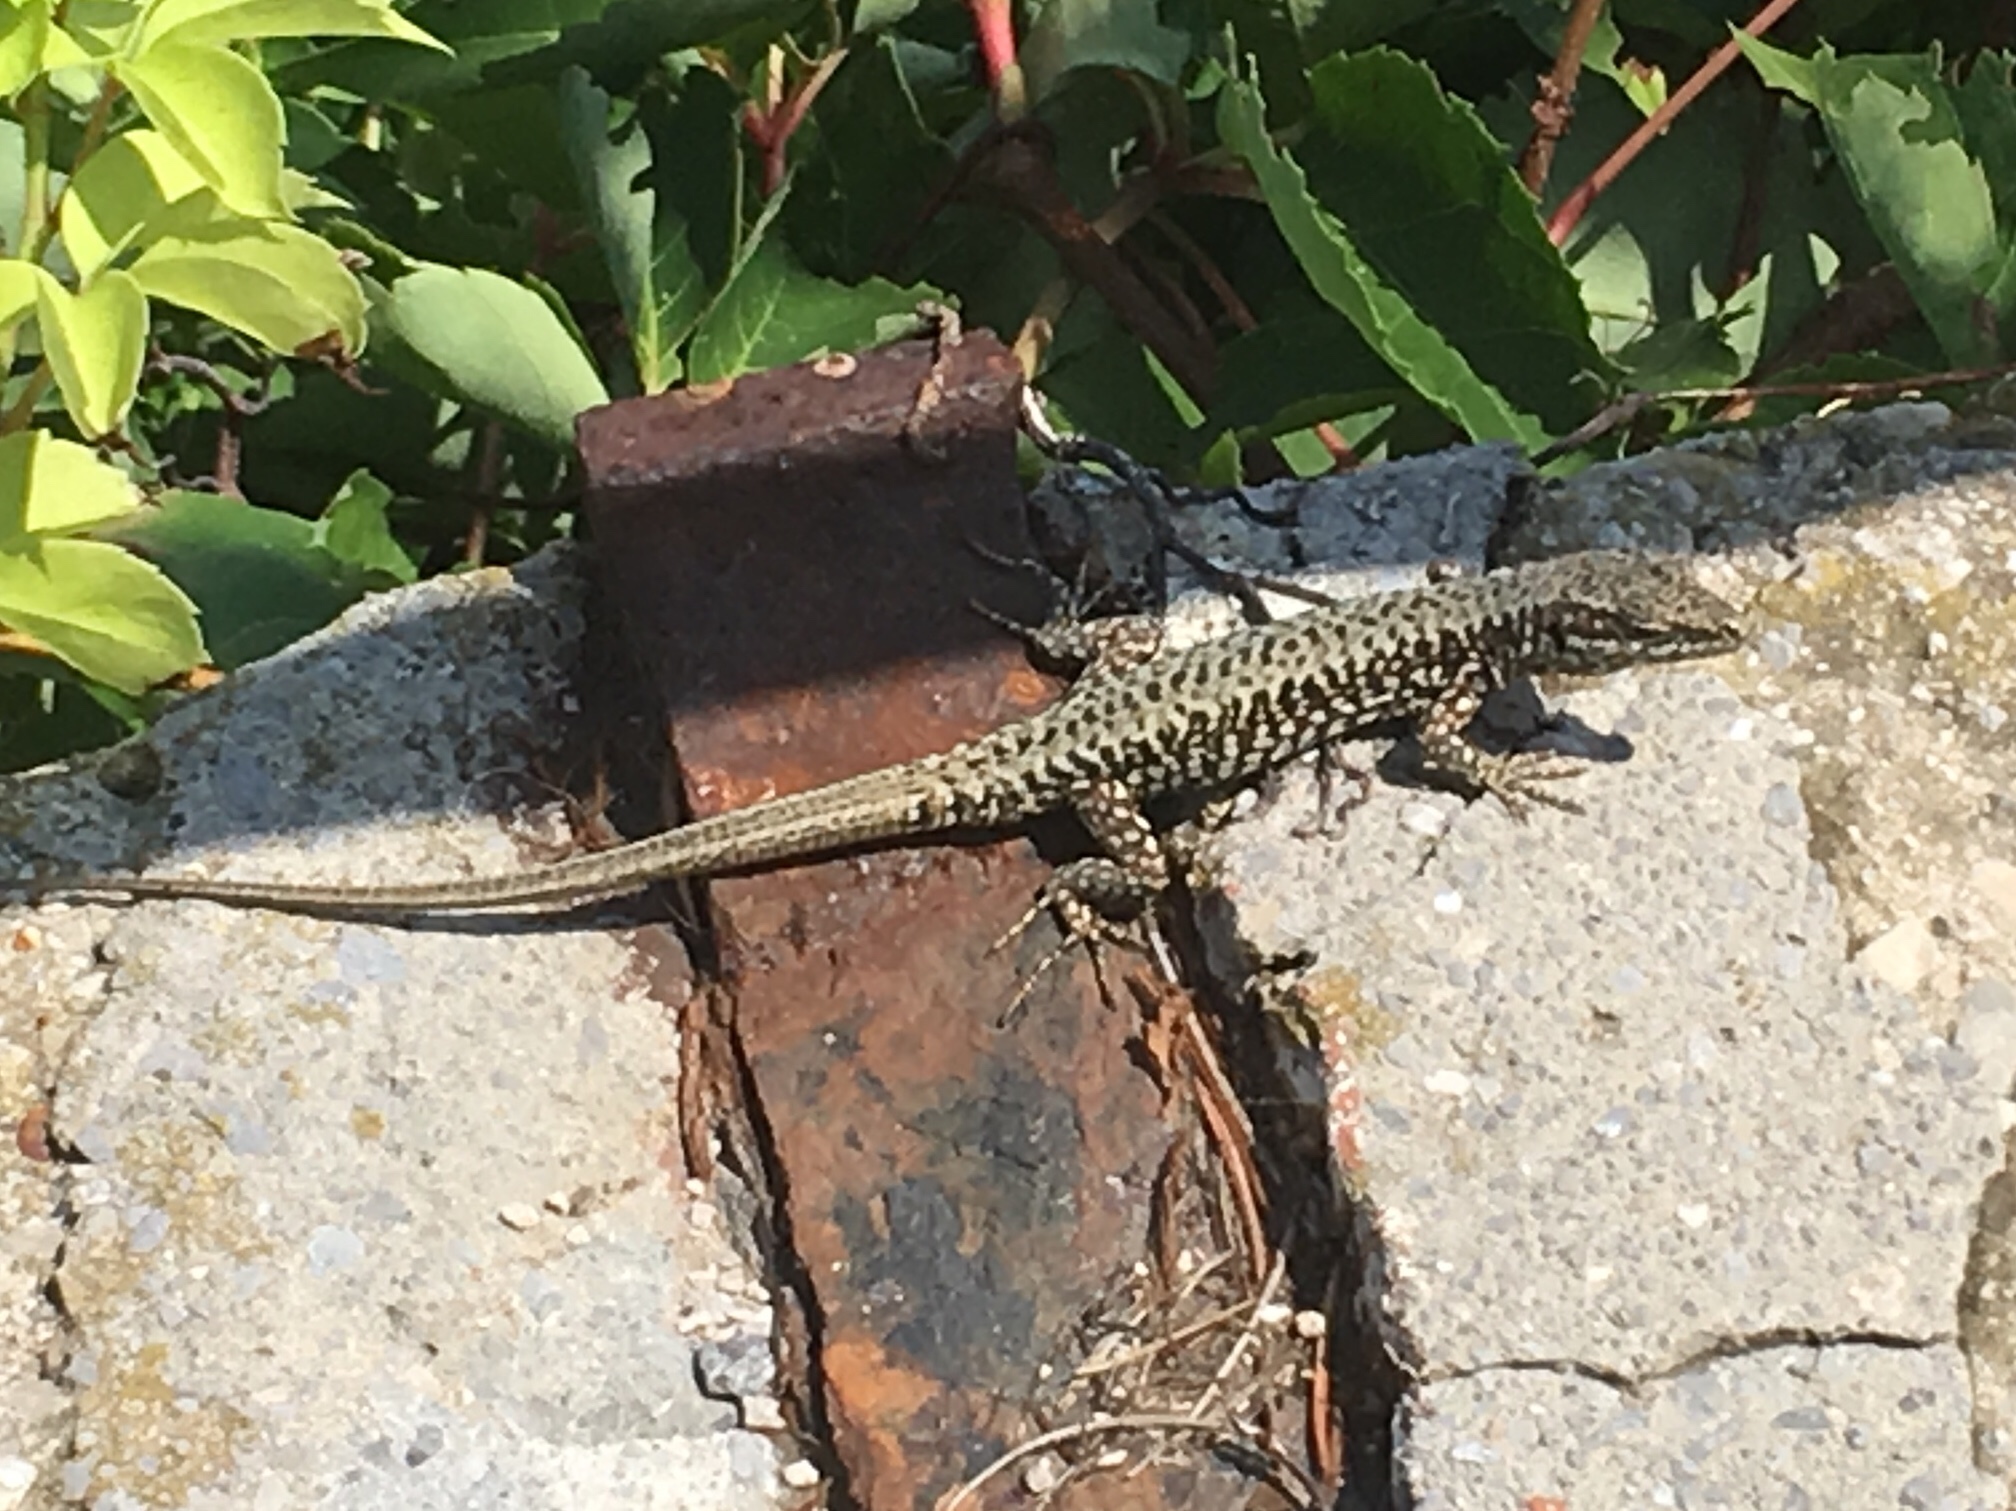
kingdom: Animalia
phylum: Chordata
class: Squamata
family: Lacertidae
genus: Podarcis
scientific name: Podarcis muralis
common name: Common wall lizard
